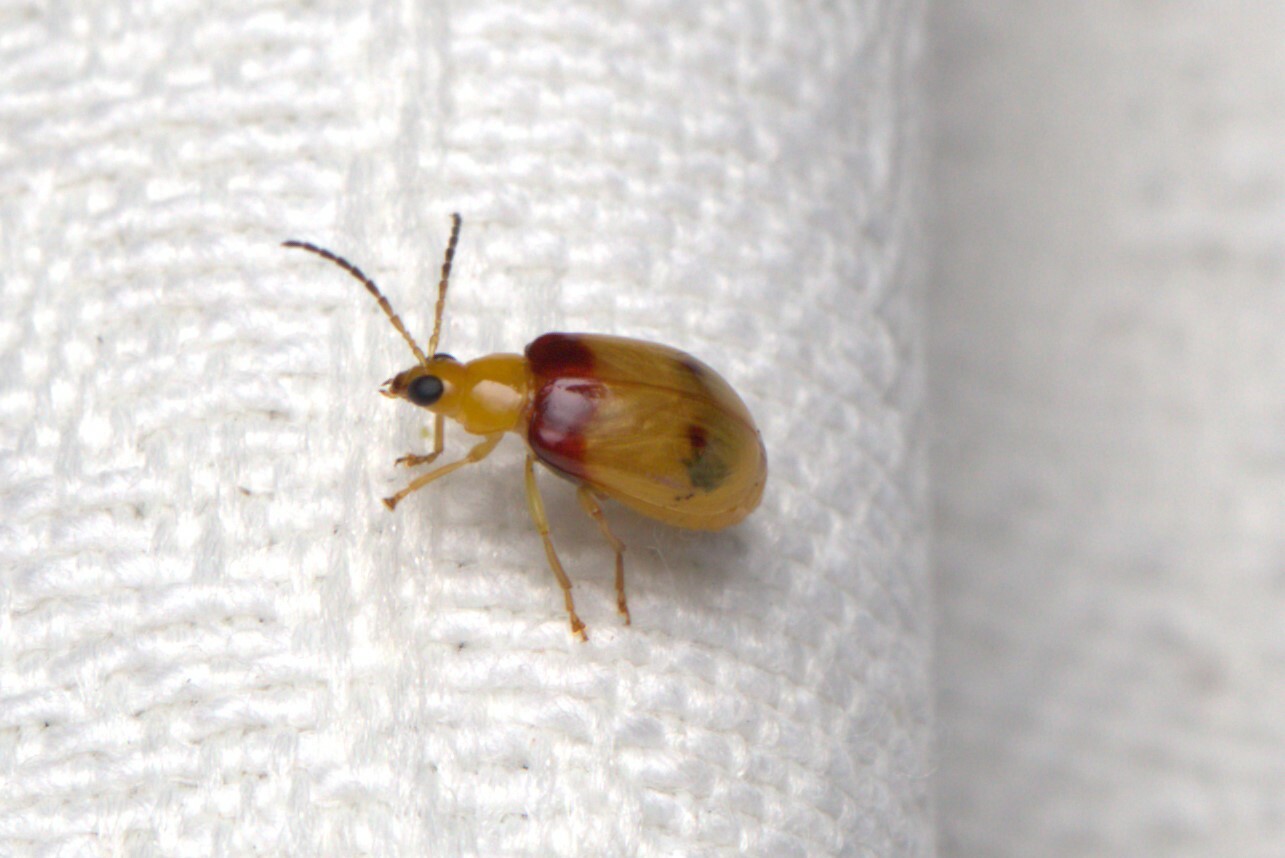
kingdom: Animalia
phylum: Arthropoda
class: Insecta
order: Coleoptera
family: Chrysomelidae
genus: Monolepta
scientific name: Monolepta
